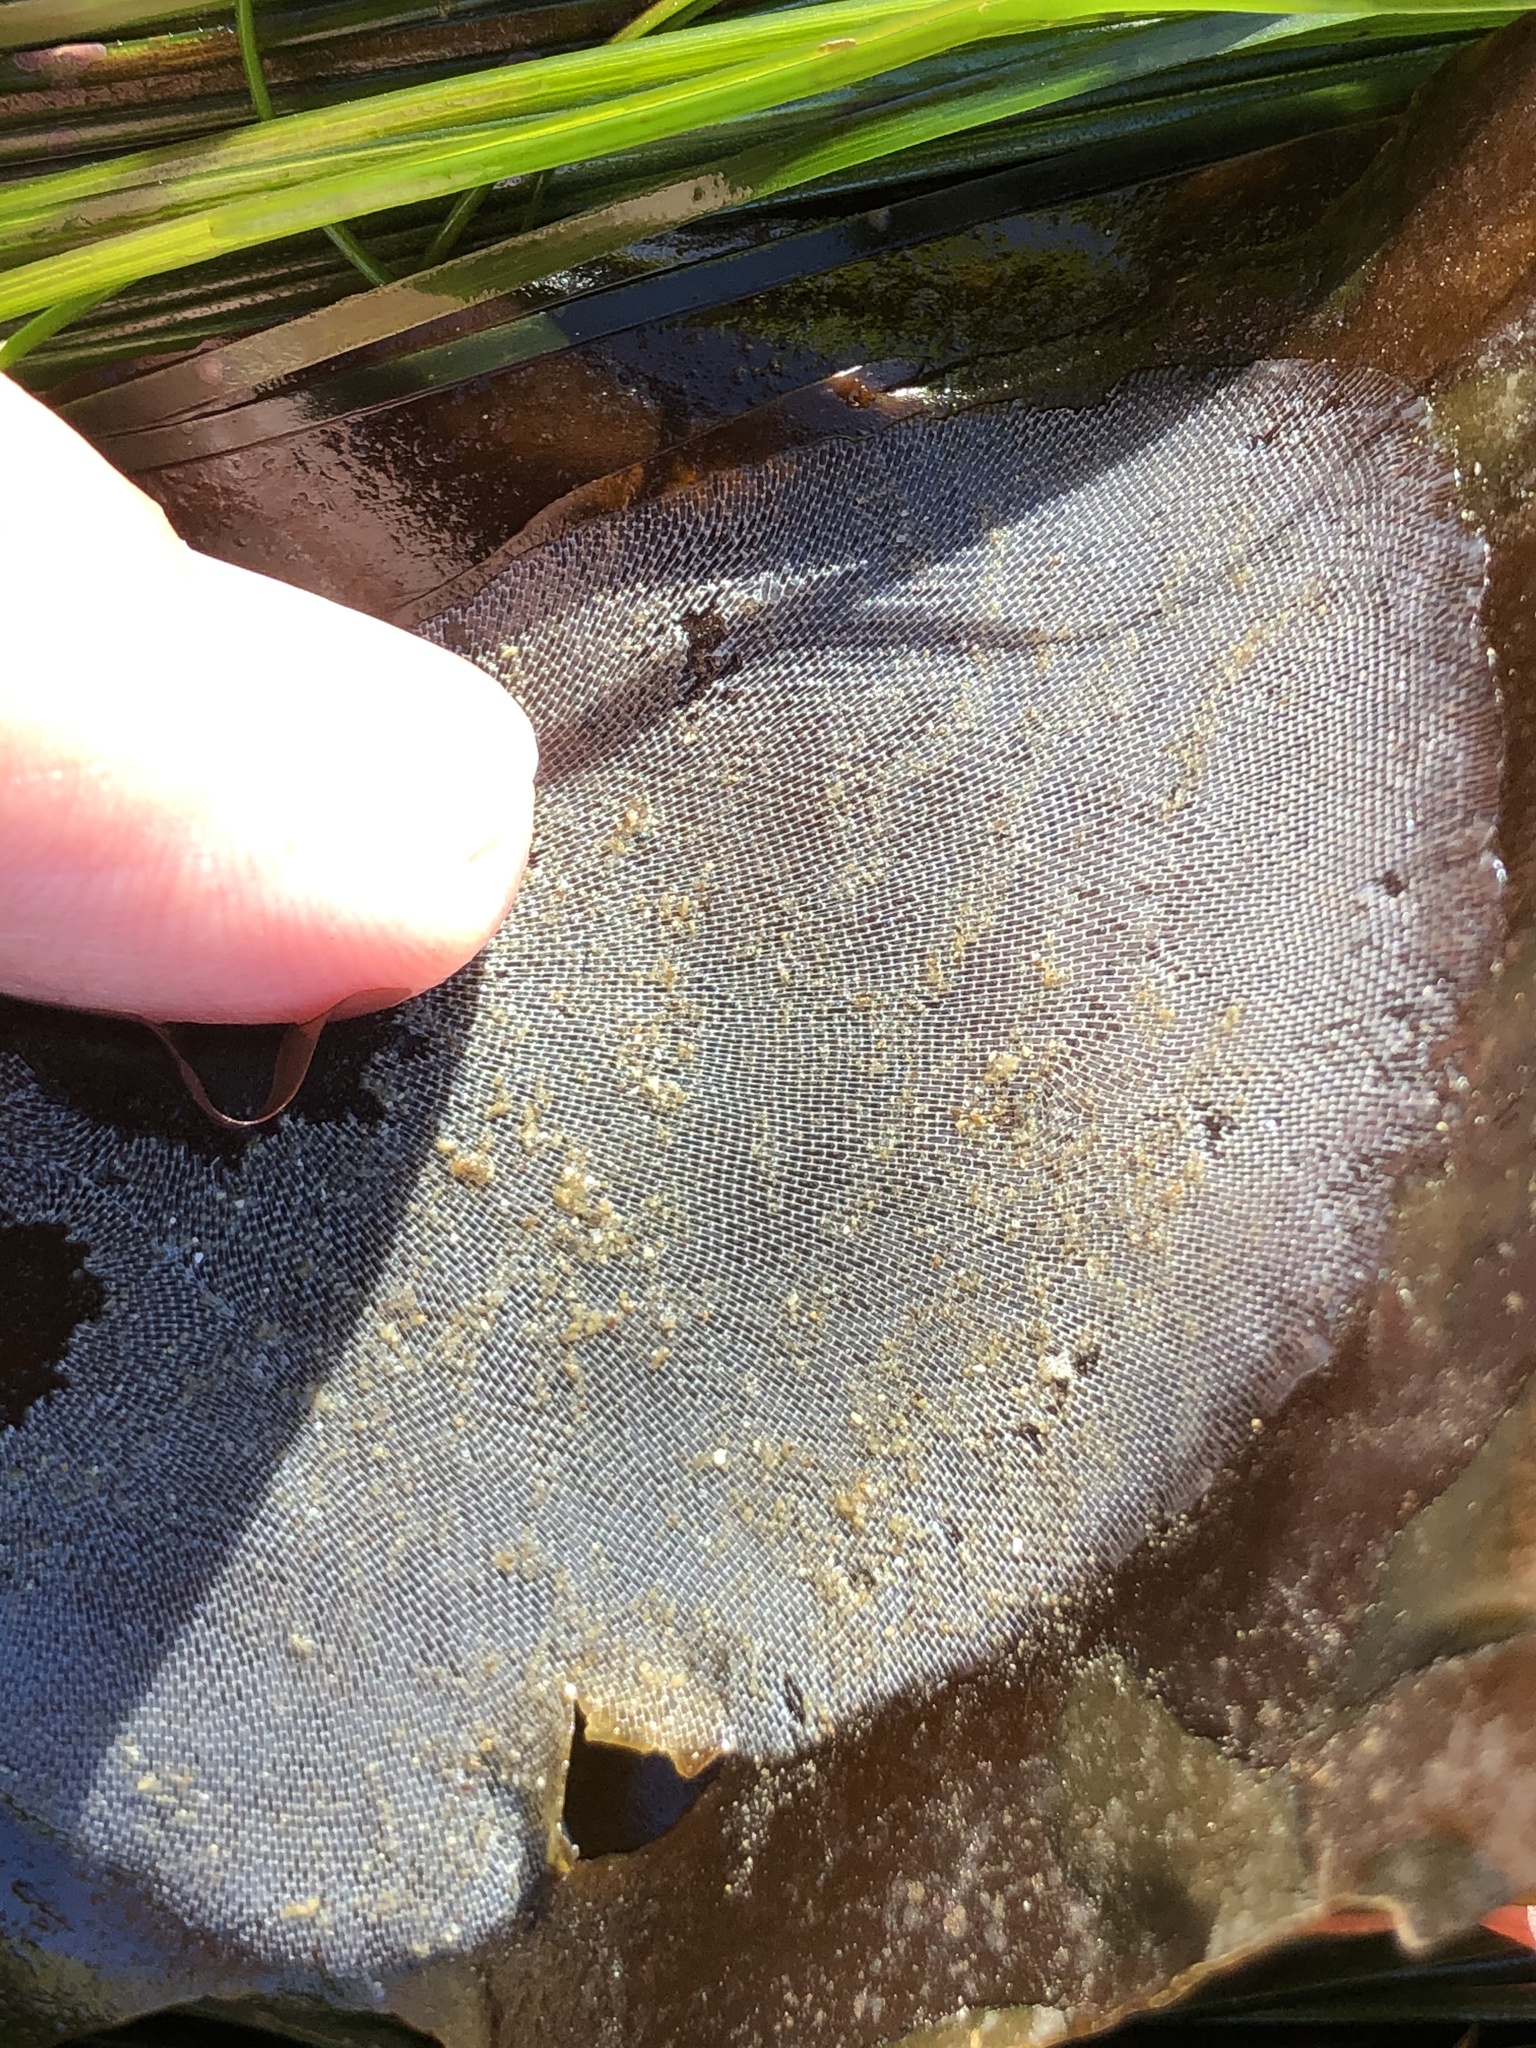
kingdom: Animalia
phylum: Bryozoa
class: Gymnolaemata
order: Cheilostomatida
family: Membraniporidae
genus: Membranipora
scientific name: Membranipora membranacea
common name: Sea mat
